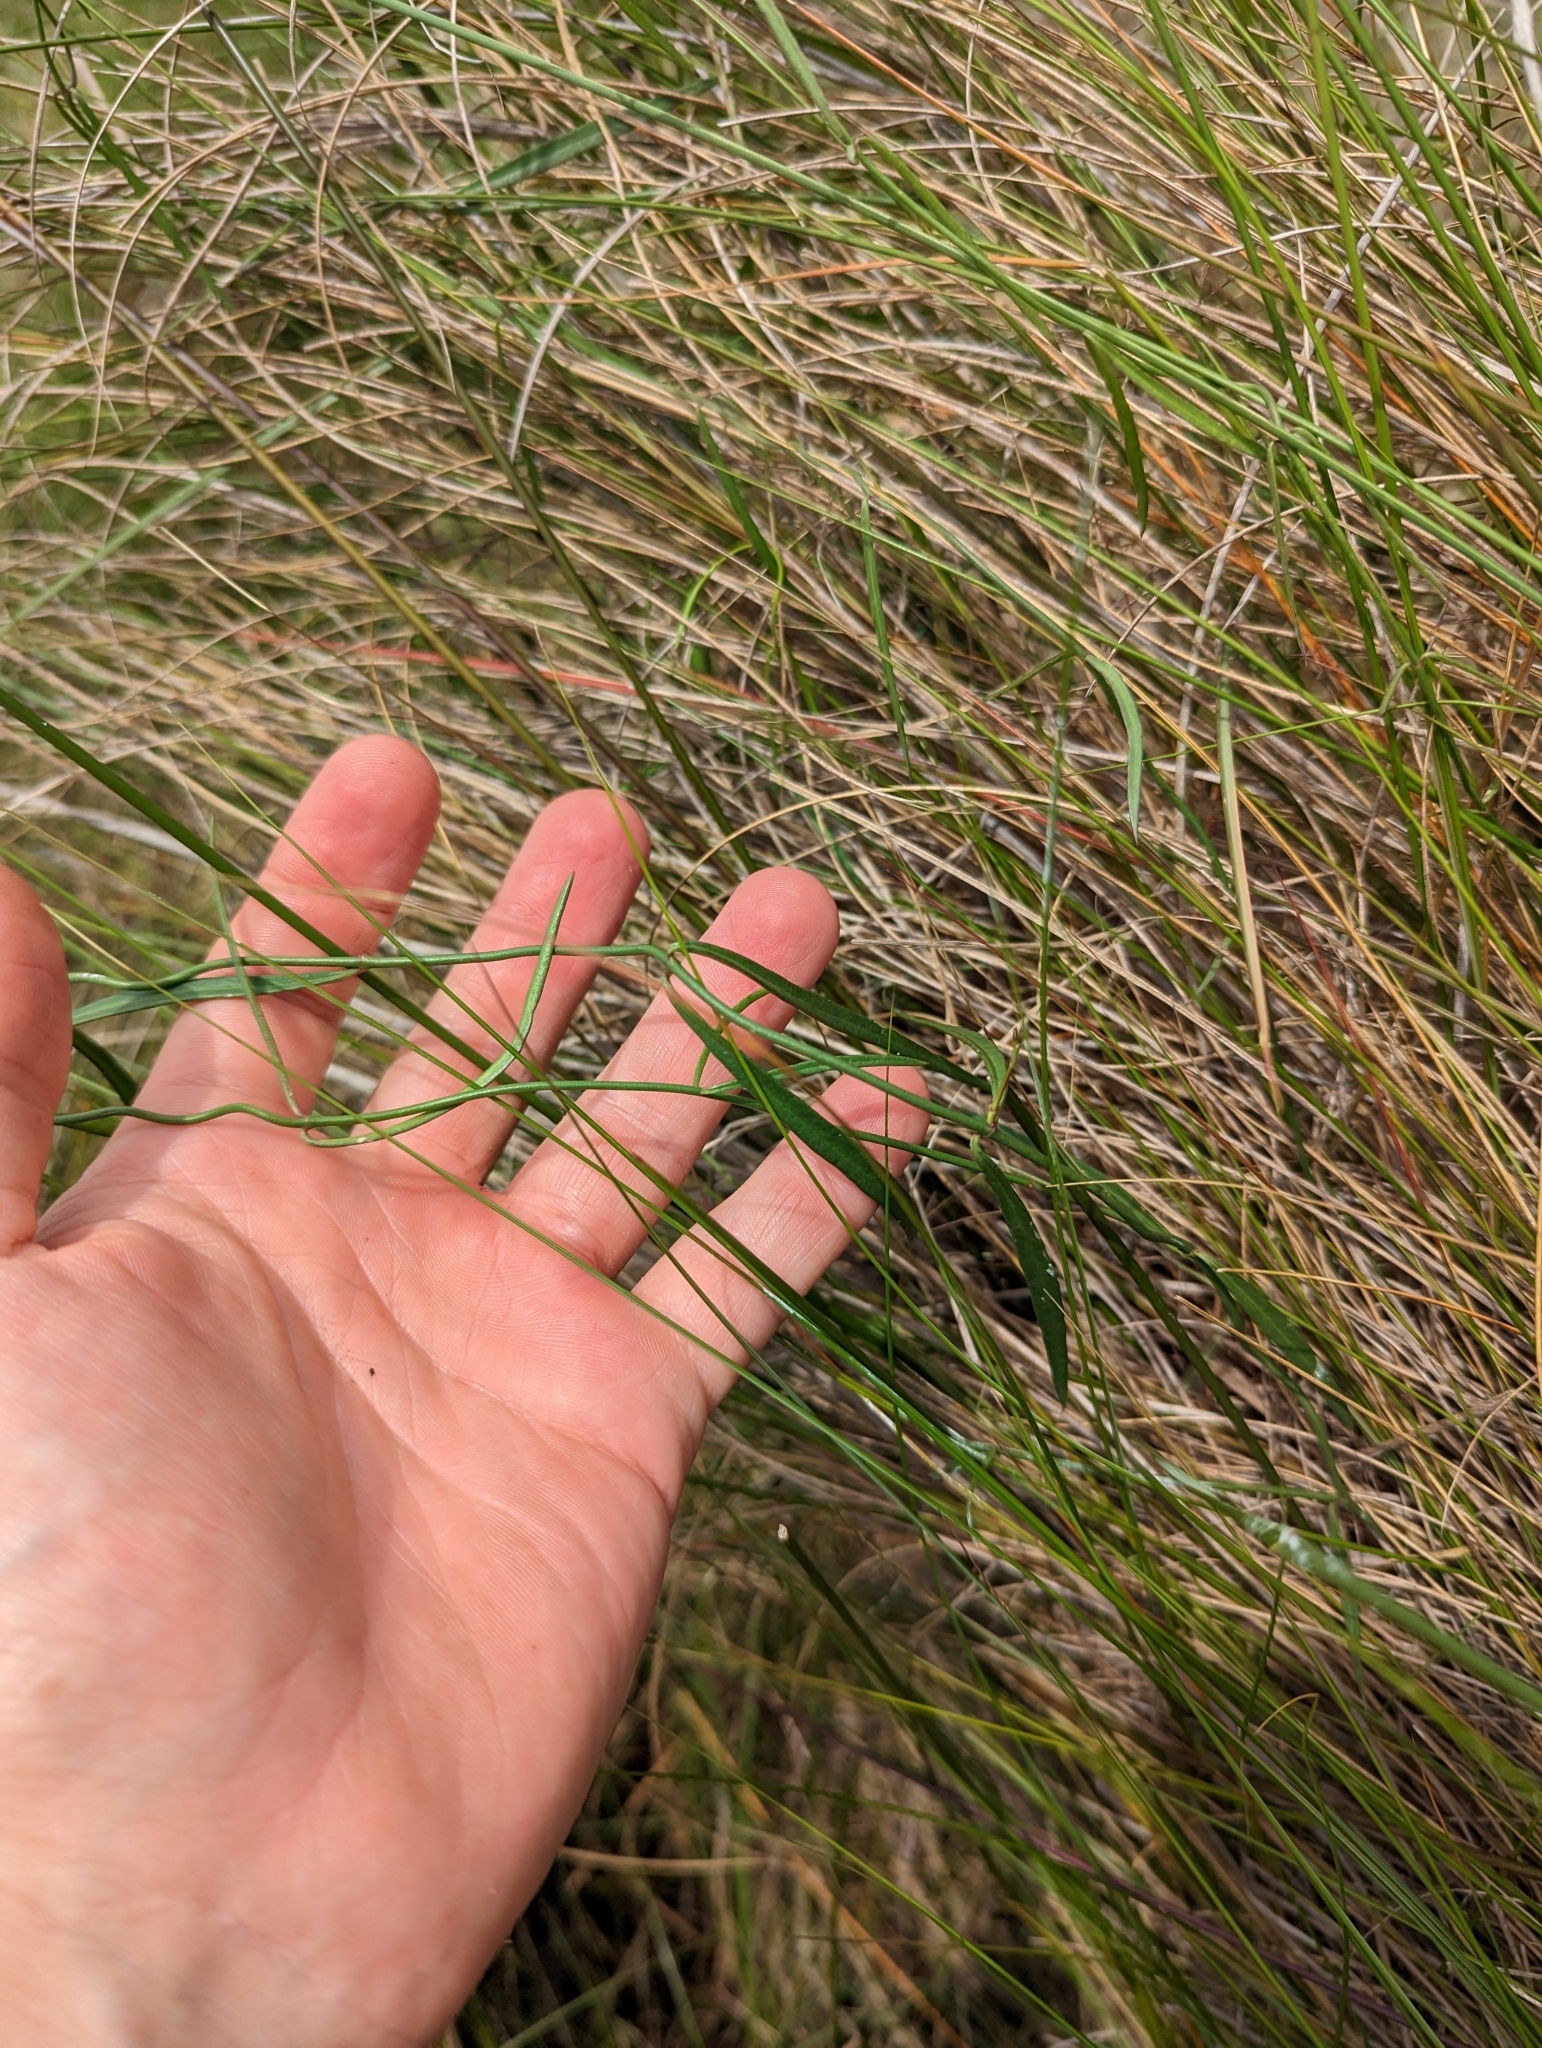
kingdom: Plantae
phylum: Tracheophyta
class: Magnoliopsida
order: Gentianales
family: Apocynaceae
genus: Pattalias
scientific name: Pattalias
